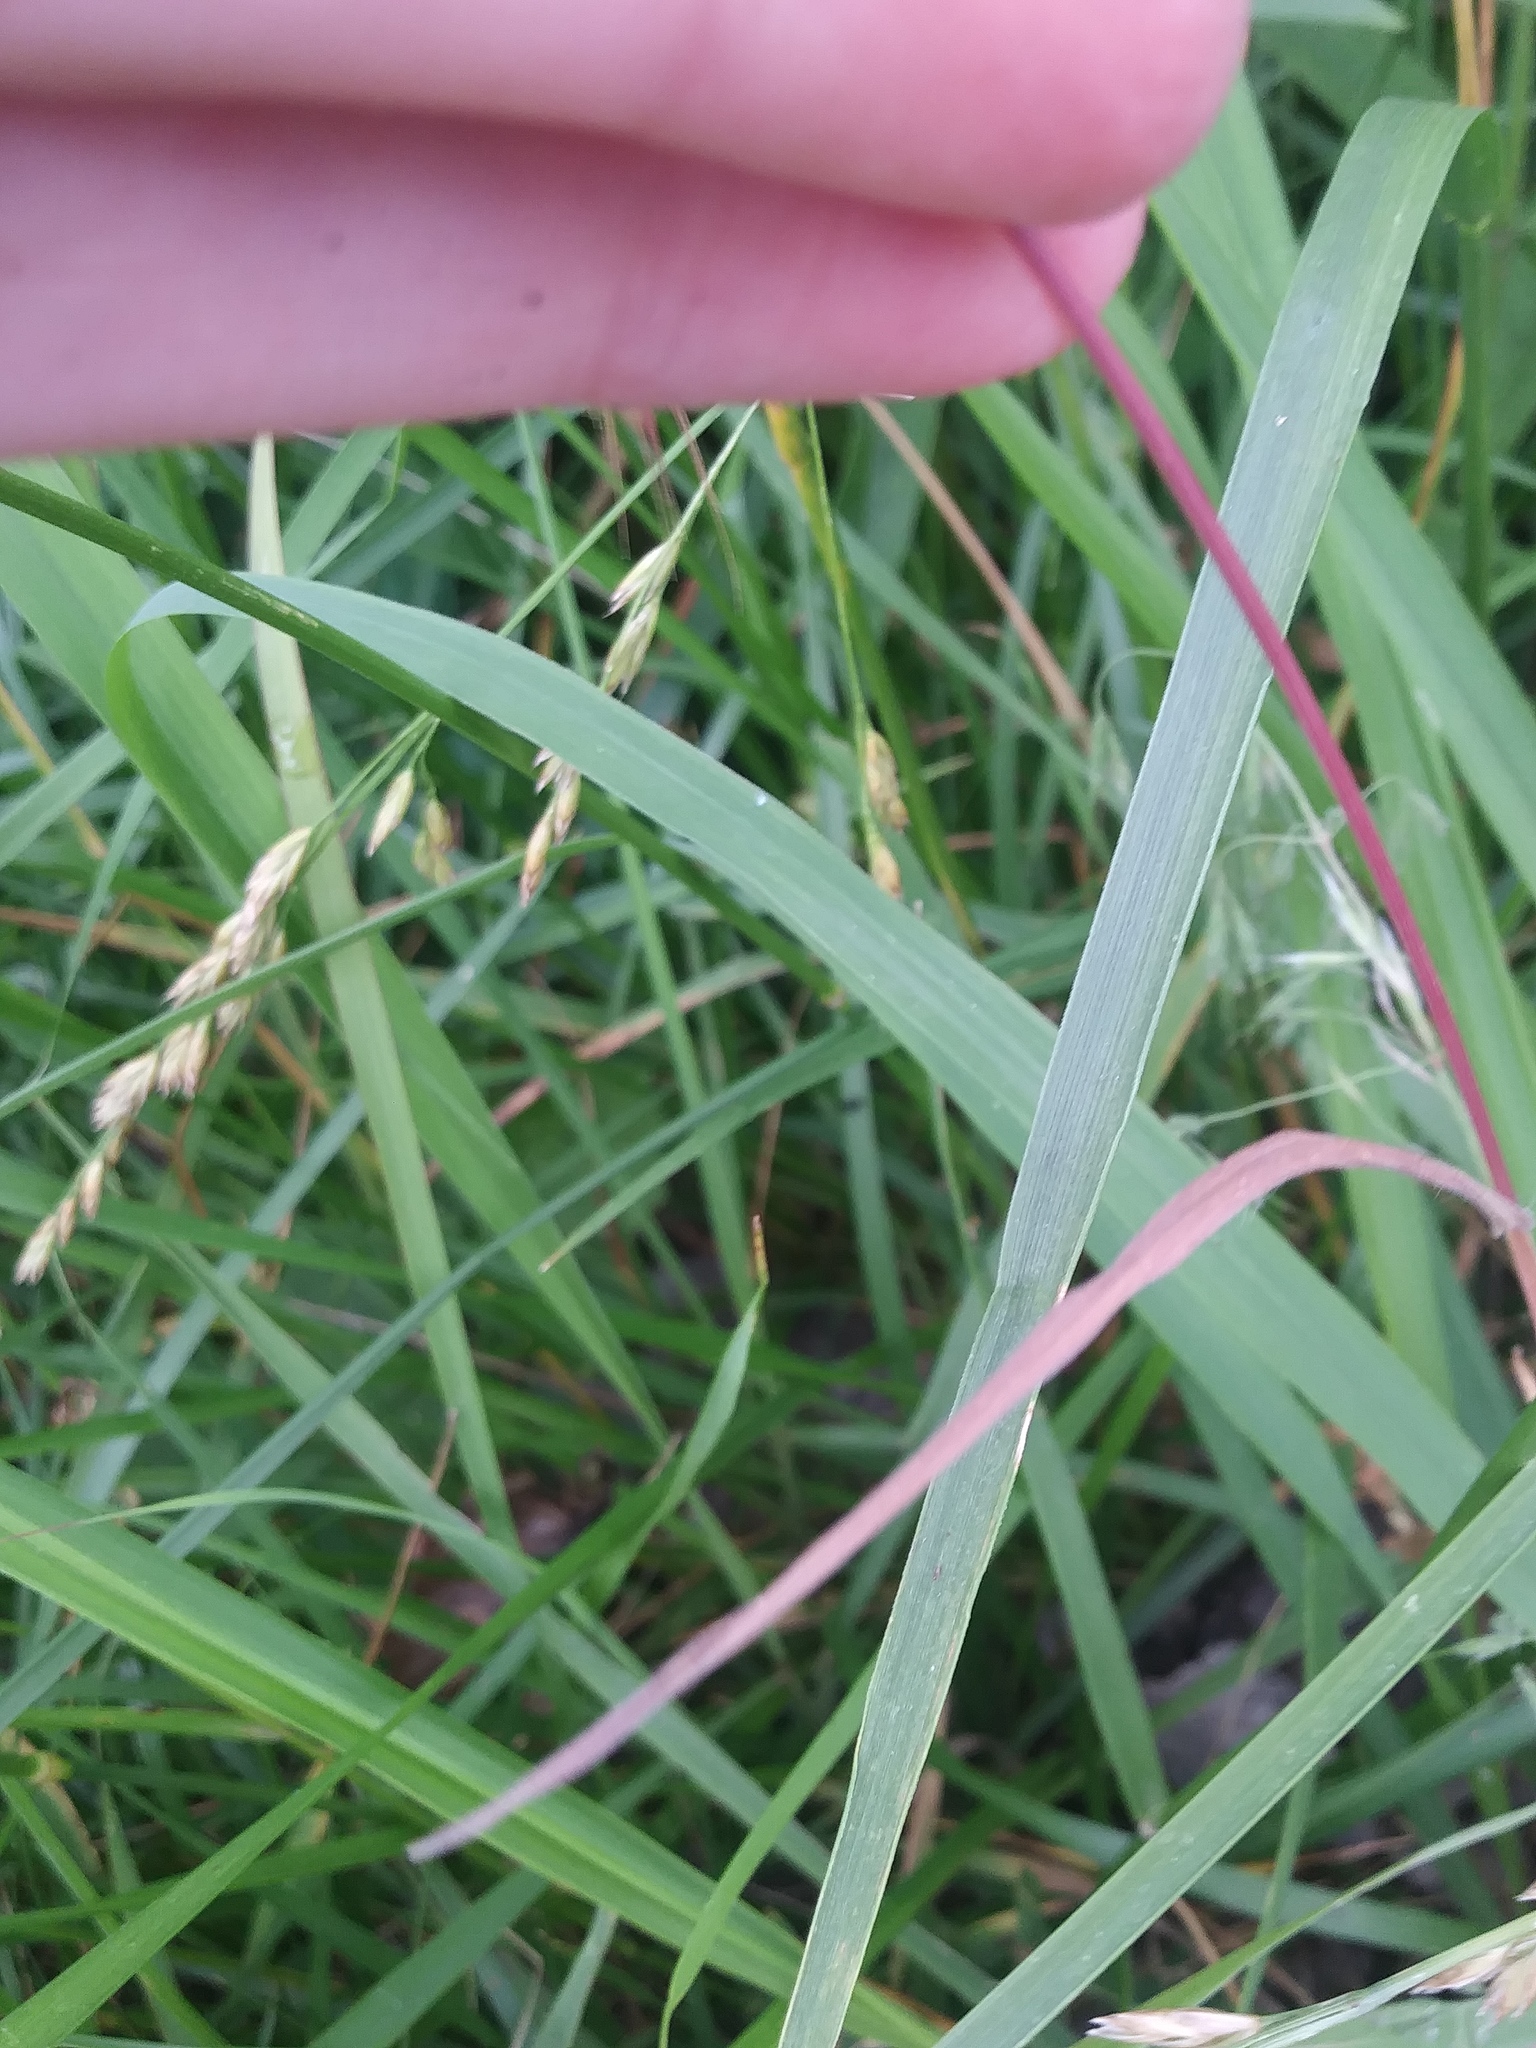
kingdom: Plantae
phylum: Tracheophyta
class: Liliopsida
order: Poales
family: Poaceae
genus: Bromus
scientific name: Bromus tectorum
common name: Cheatgrass
